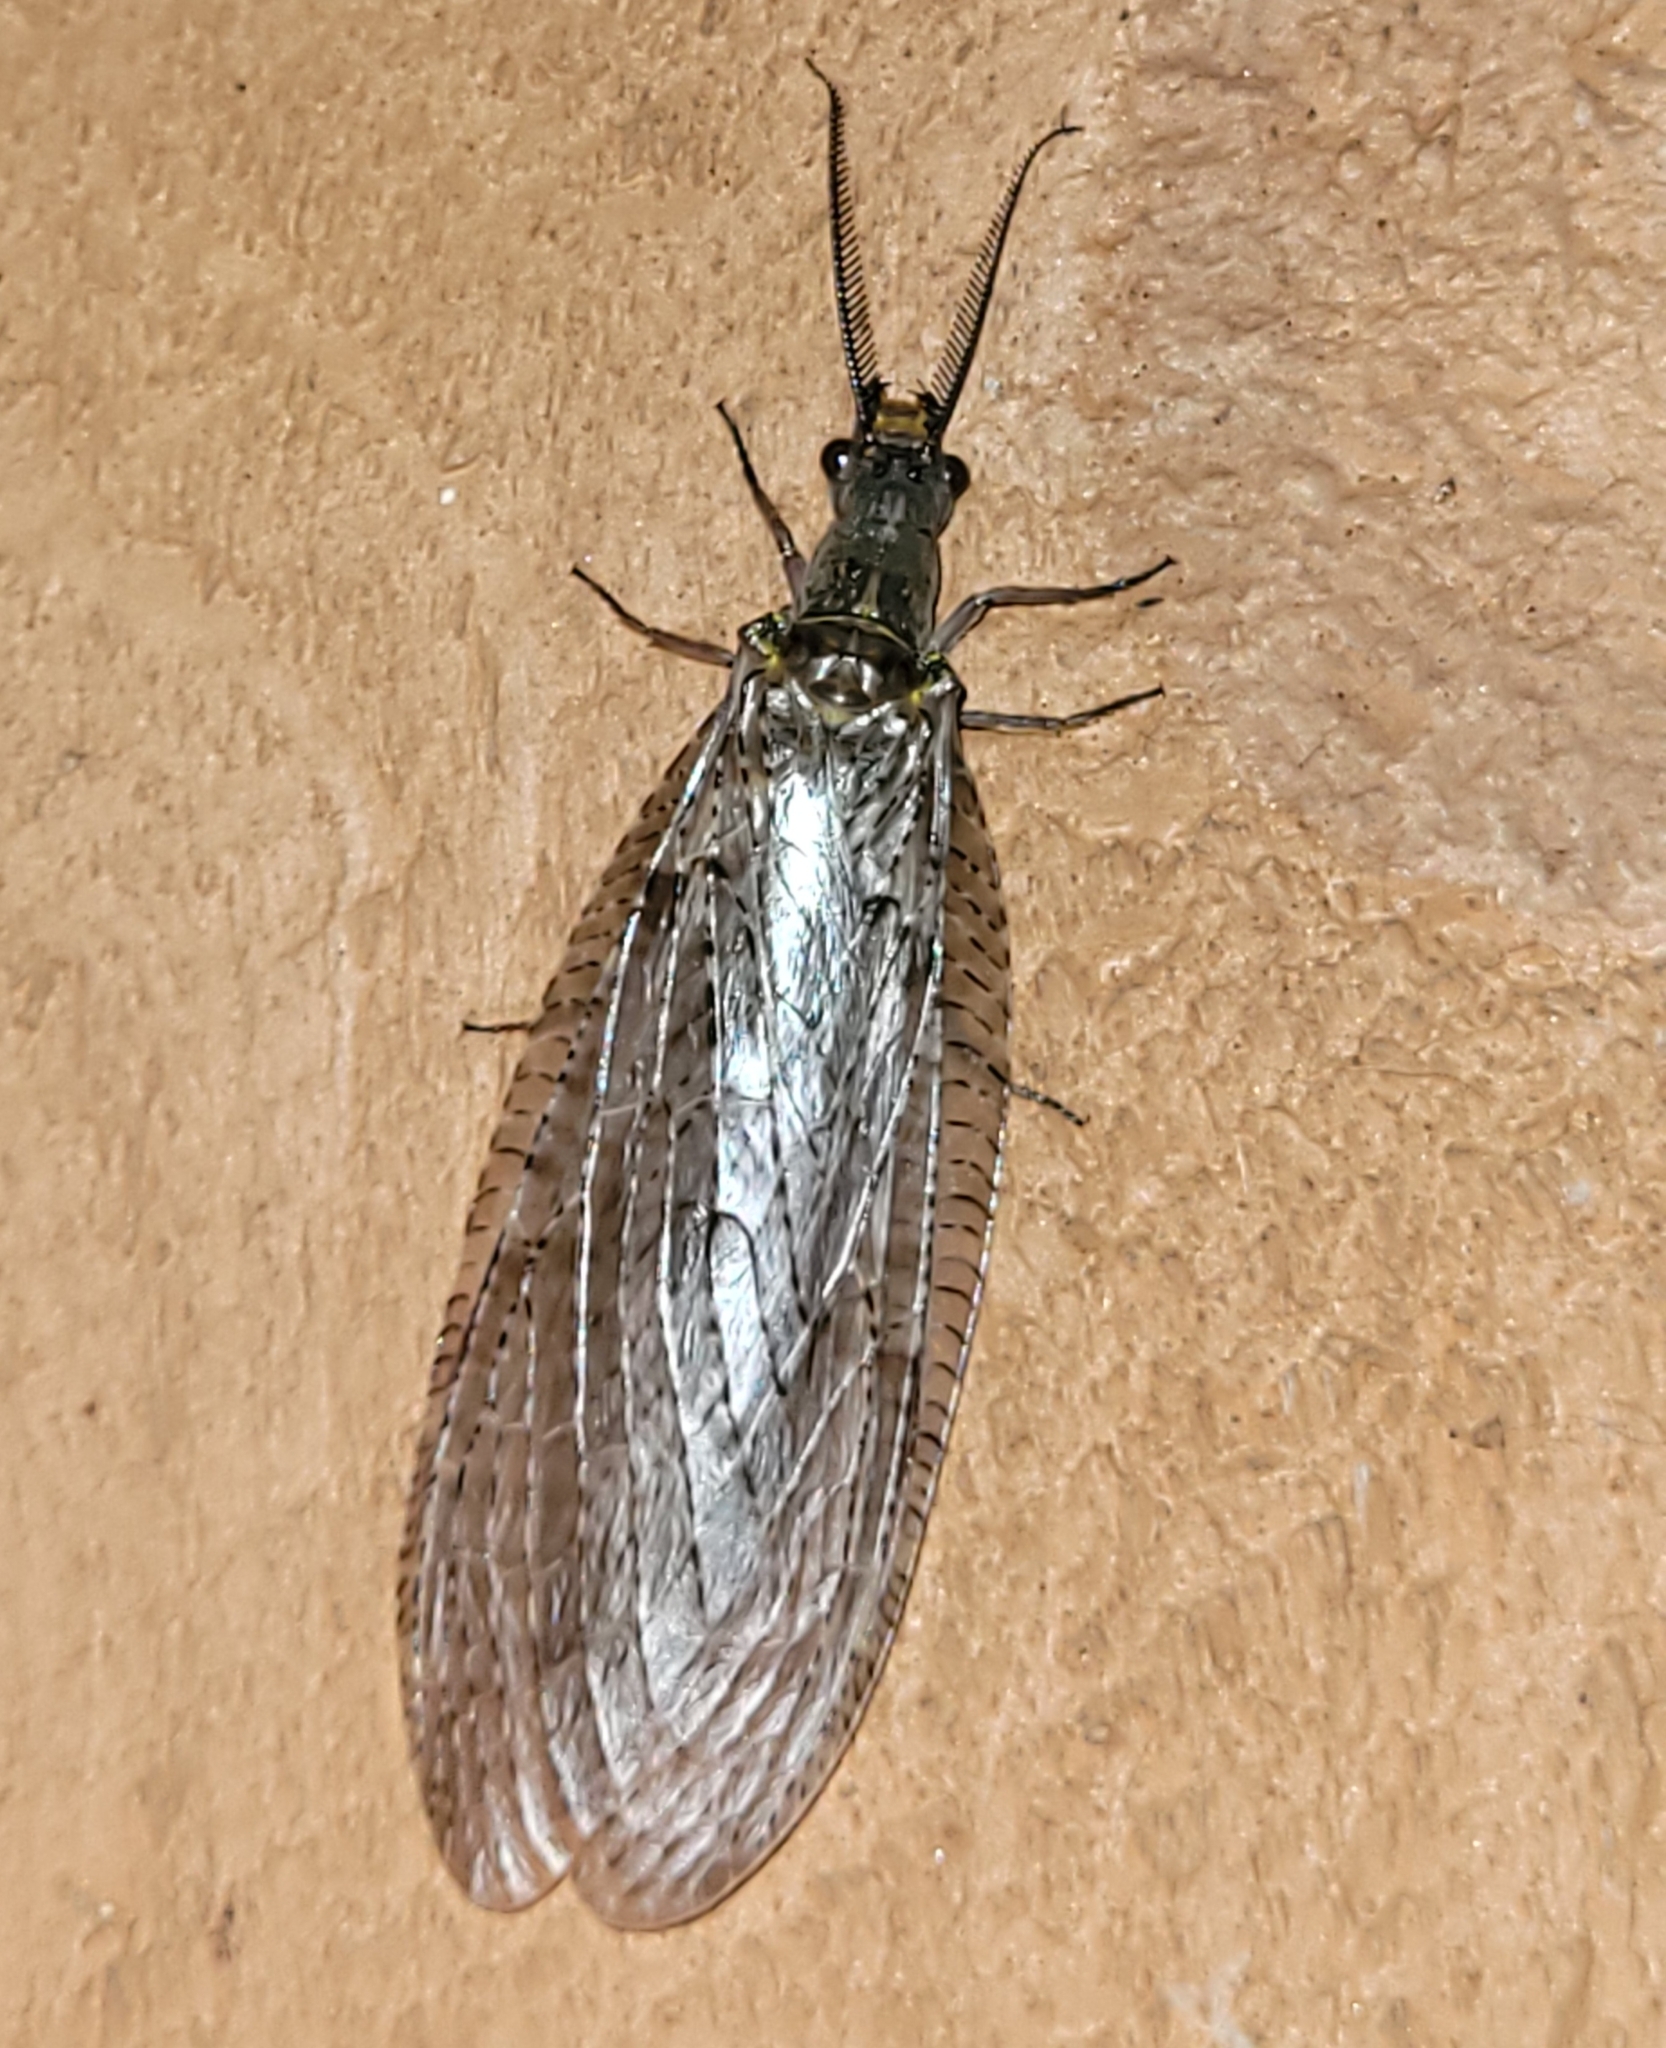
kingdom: Animalia
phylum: Arthropoda
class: Insecta
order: Megaloptera
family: Corydalidae
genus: Chauliodes
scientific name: Chauliodes pectinicornis
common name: Summer fishfly
